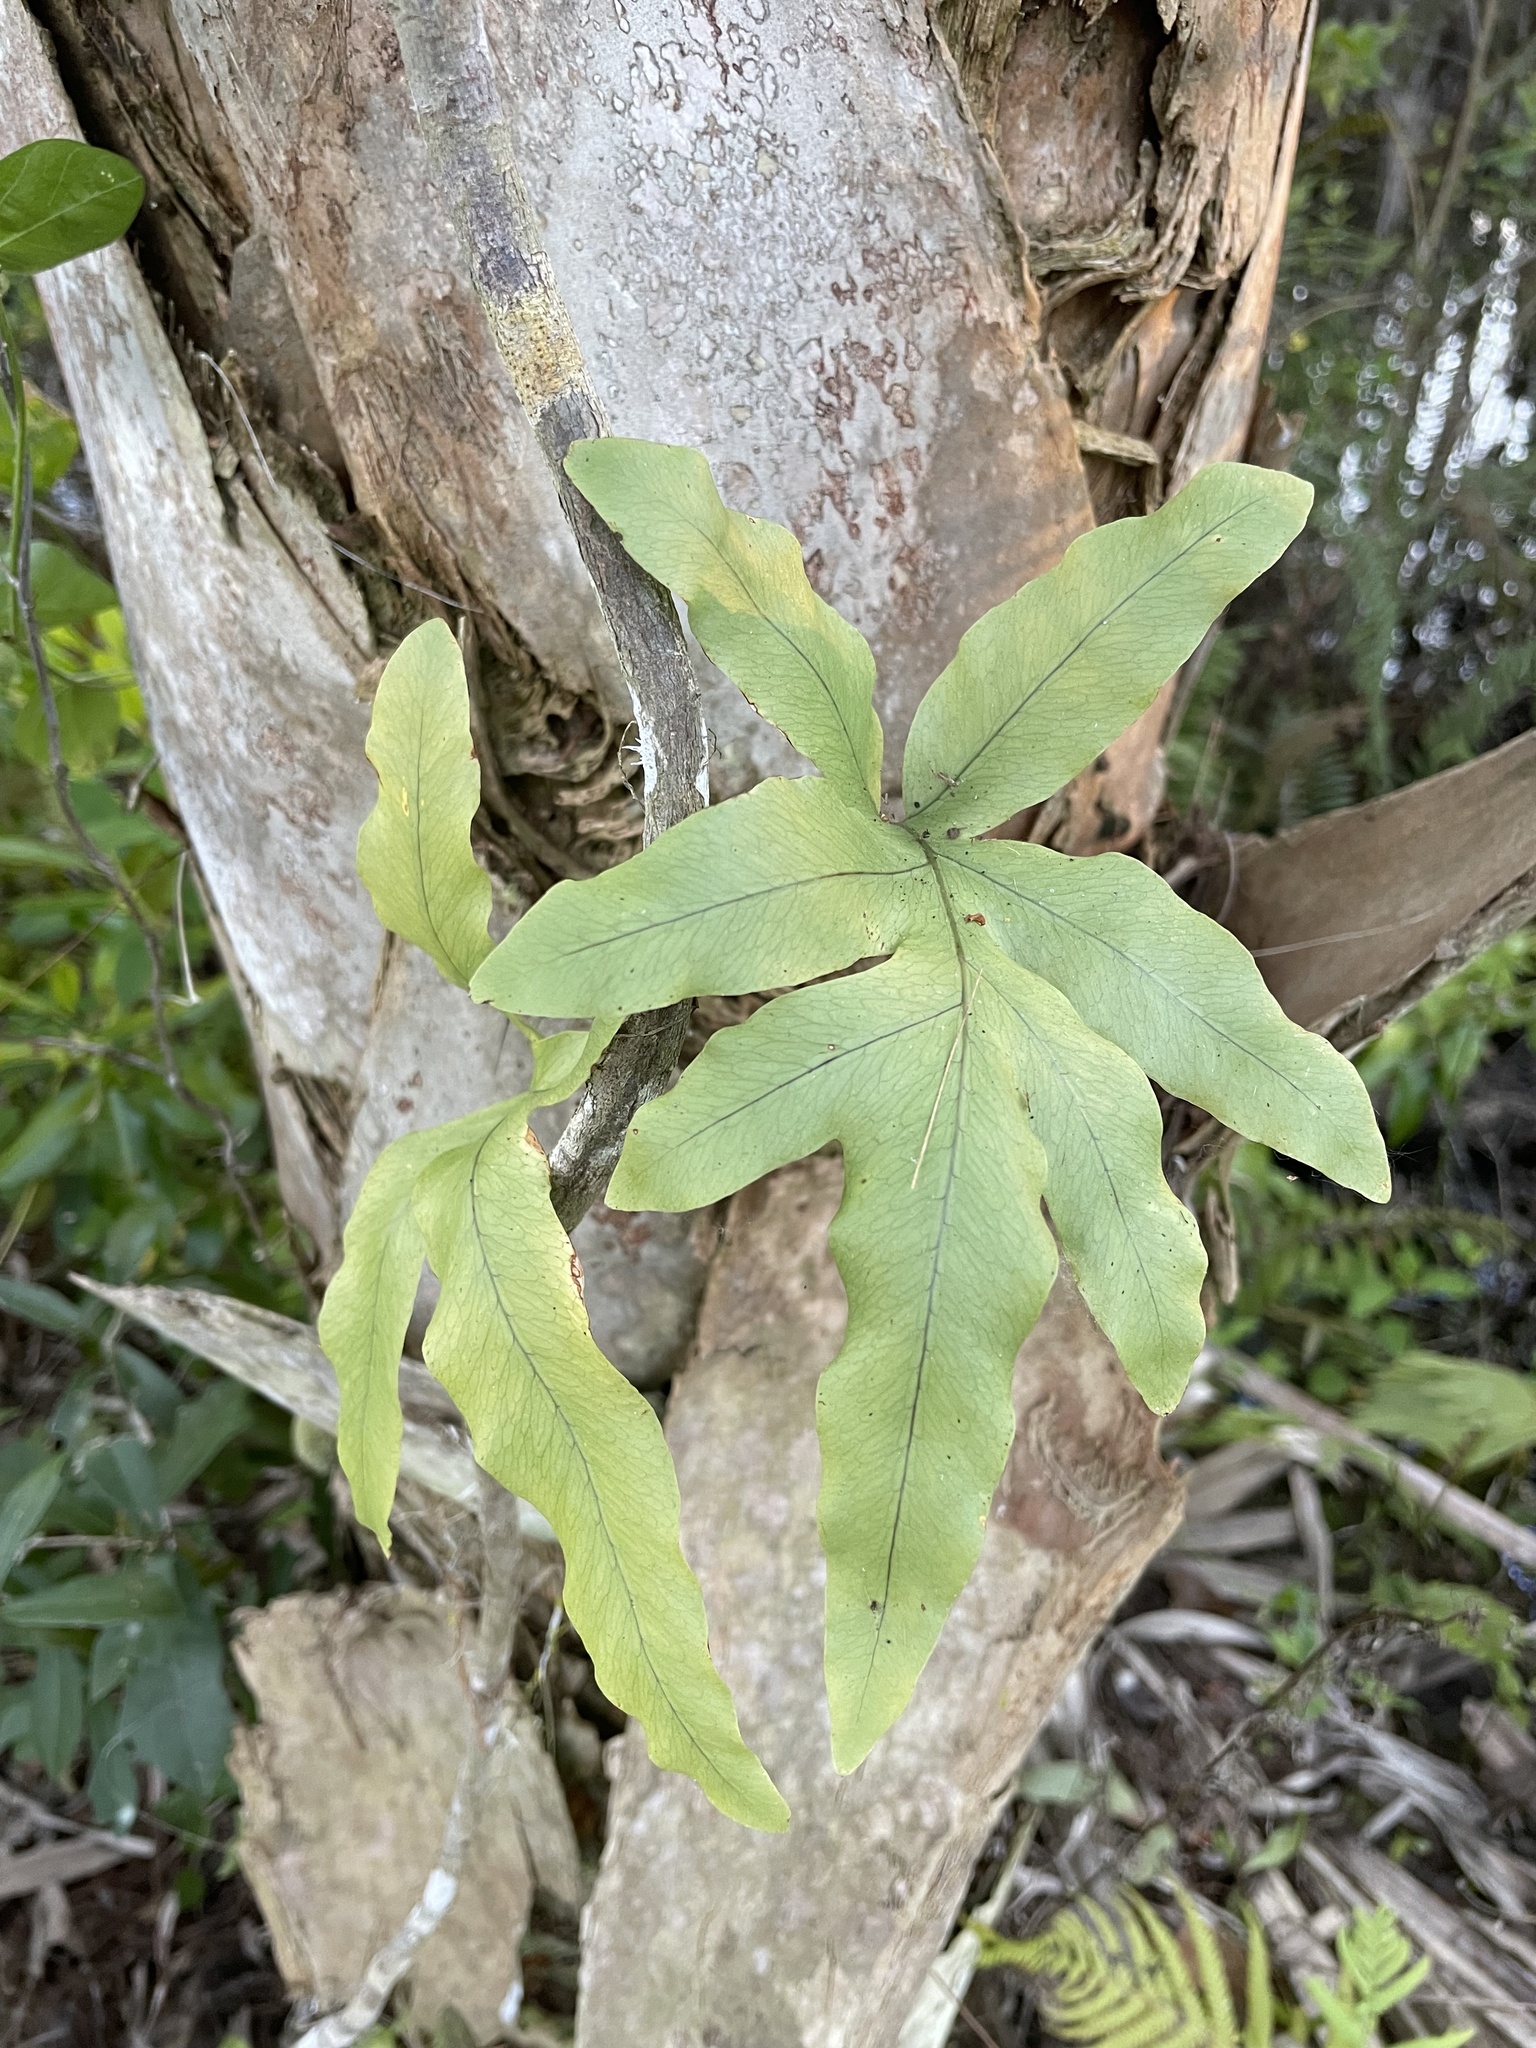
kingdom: Plantae
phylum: Tracheophyta
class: Polypodiopsida
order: Polypodiales
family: Polypodiaceae
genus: Phlebodium
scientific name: Phlebodium aureum
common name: Gold-foot fern
